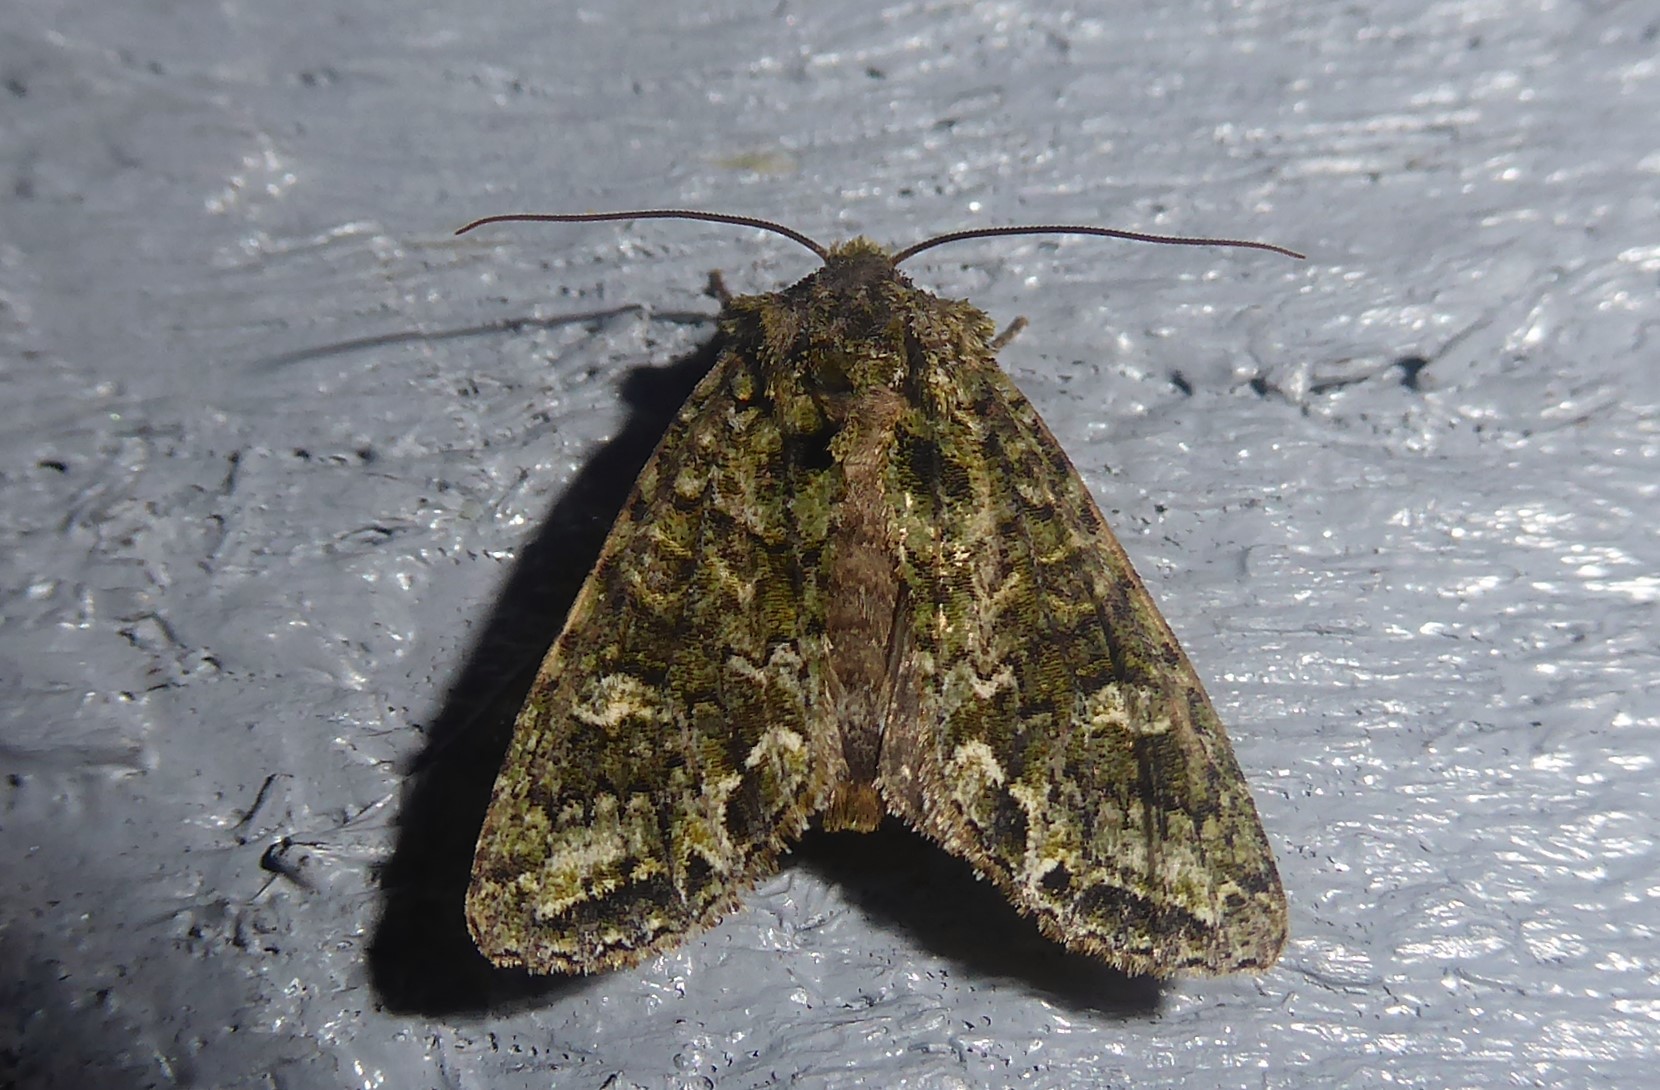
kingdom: Animalia
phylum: Arthropoda
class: Insecta
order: Lepidoptera
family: Noctuidae
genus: Ichneutica
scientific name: Ichneutica
